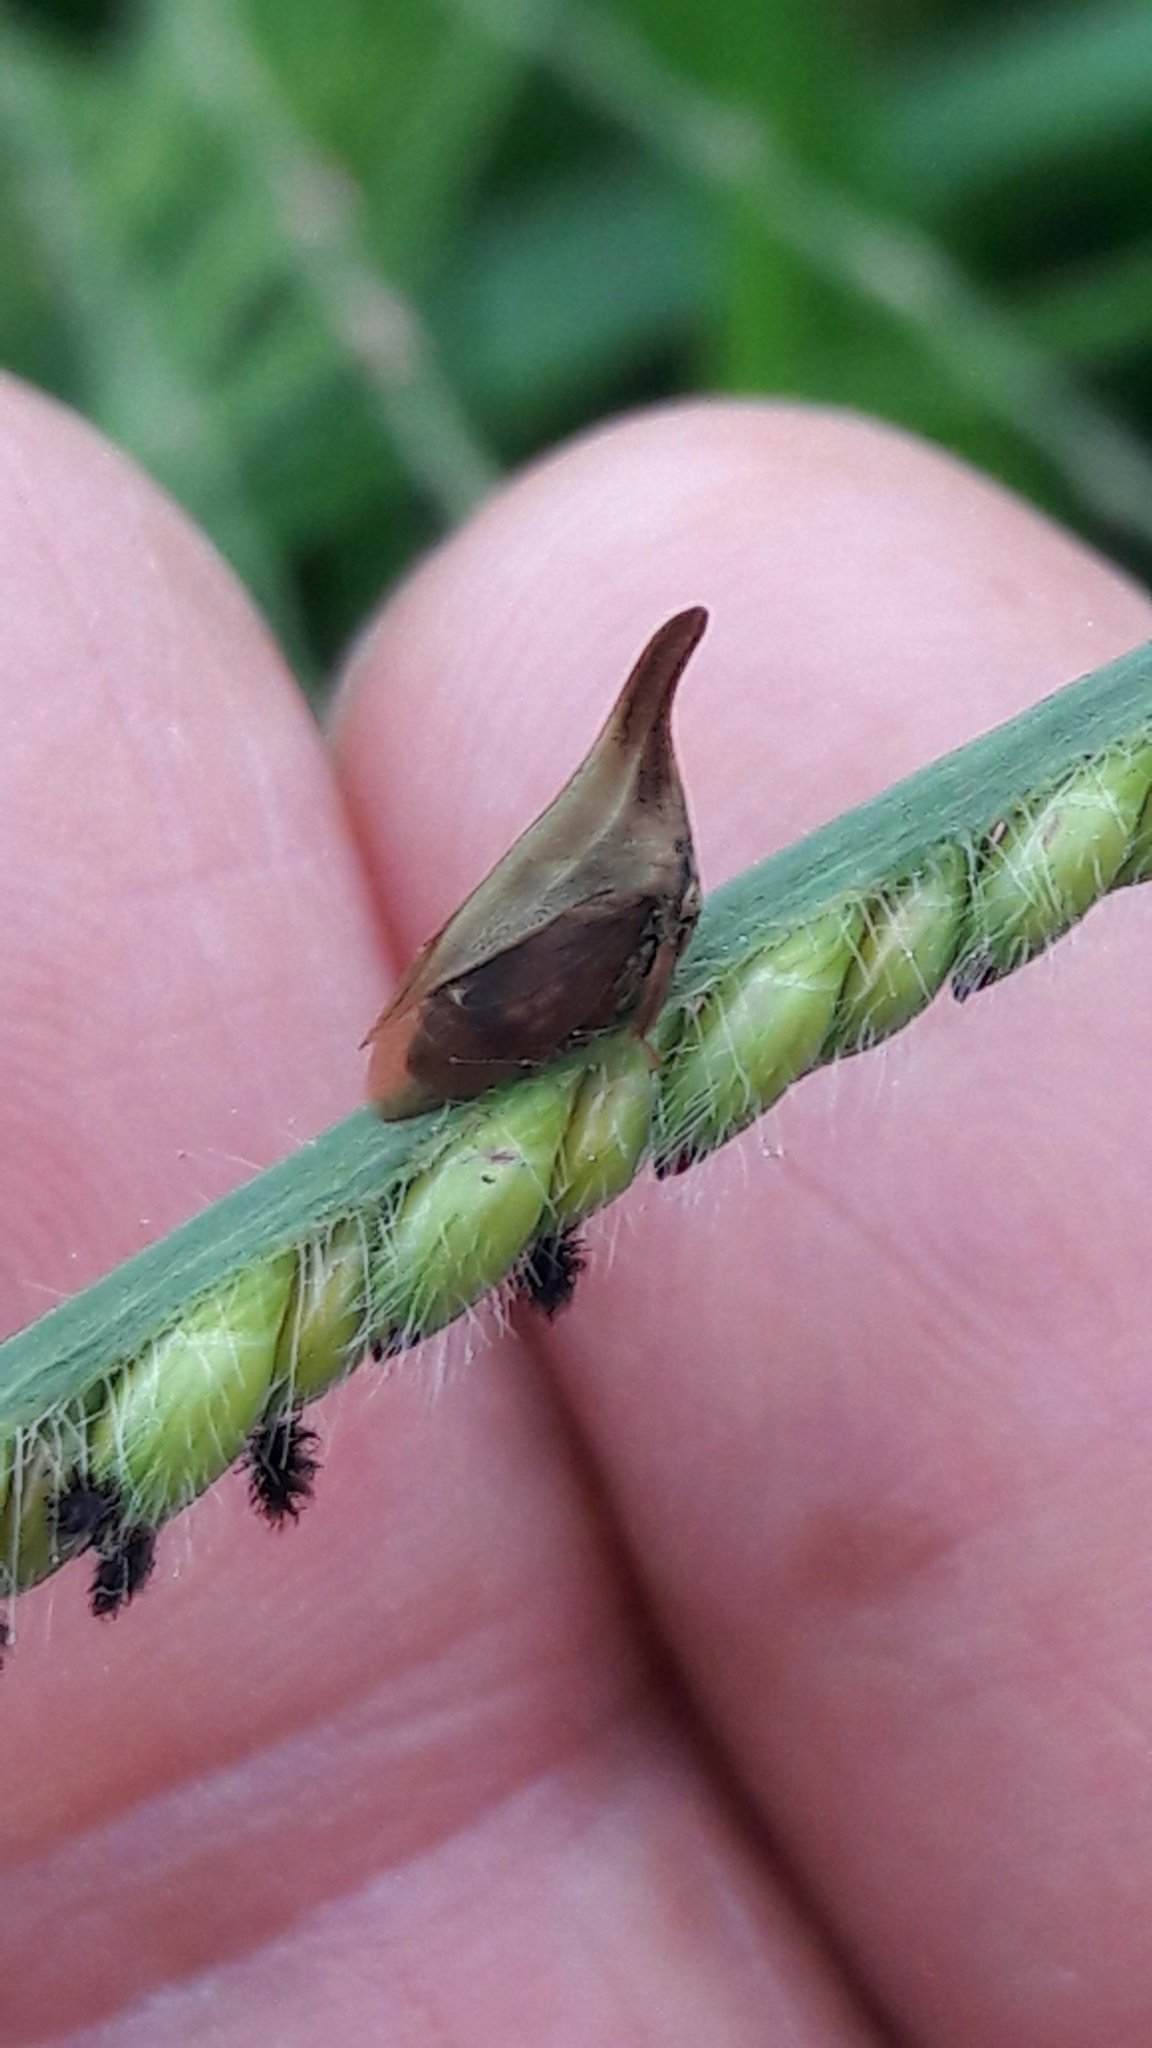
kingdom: Animalia
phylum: Arthropoda
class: Insecta
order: Hemiptera
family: Membracidae
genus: Enchenopa
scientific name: Enchenopa gracilis
